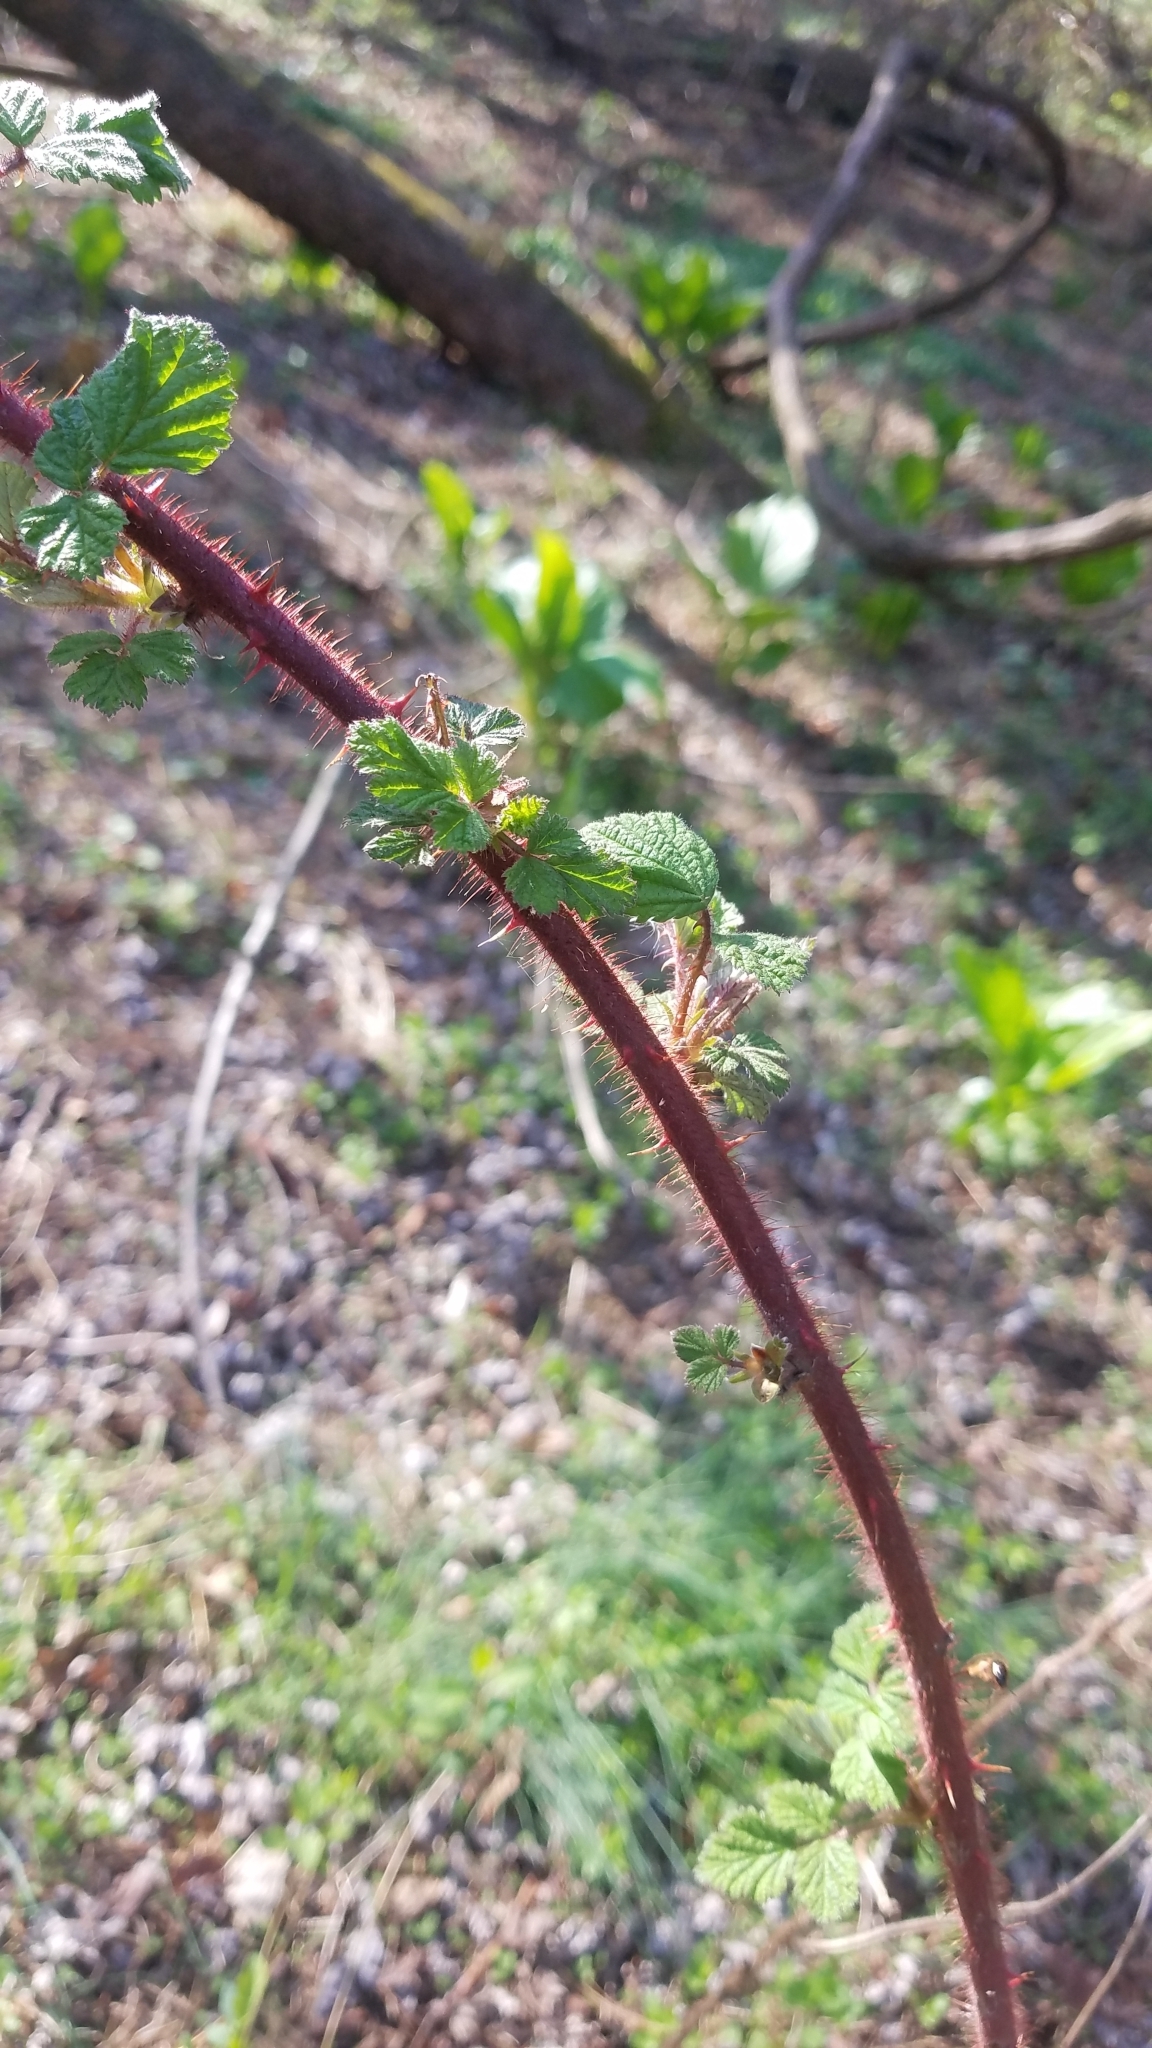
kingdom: Plantae
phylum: Tracheophyta
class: Magnoliopsida
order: Rosales
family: Rosaceae
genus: Rubus
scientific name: Rubus phoenicolasius
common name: Japanese wineberry
